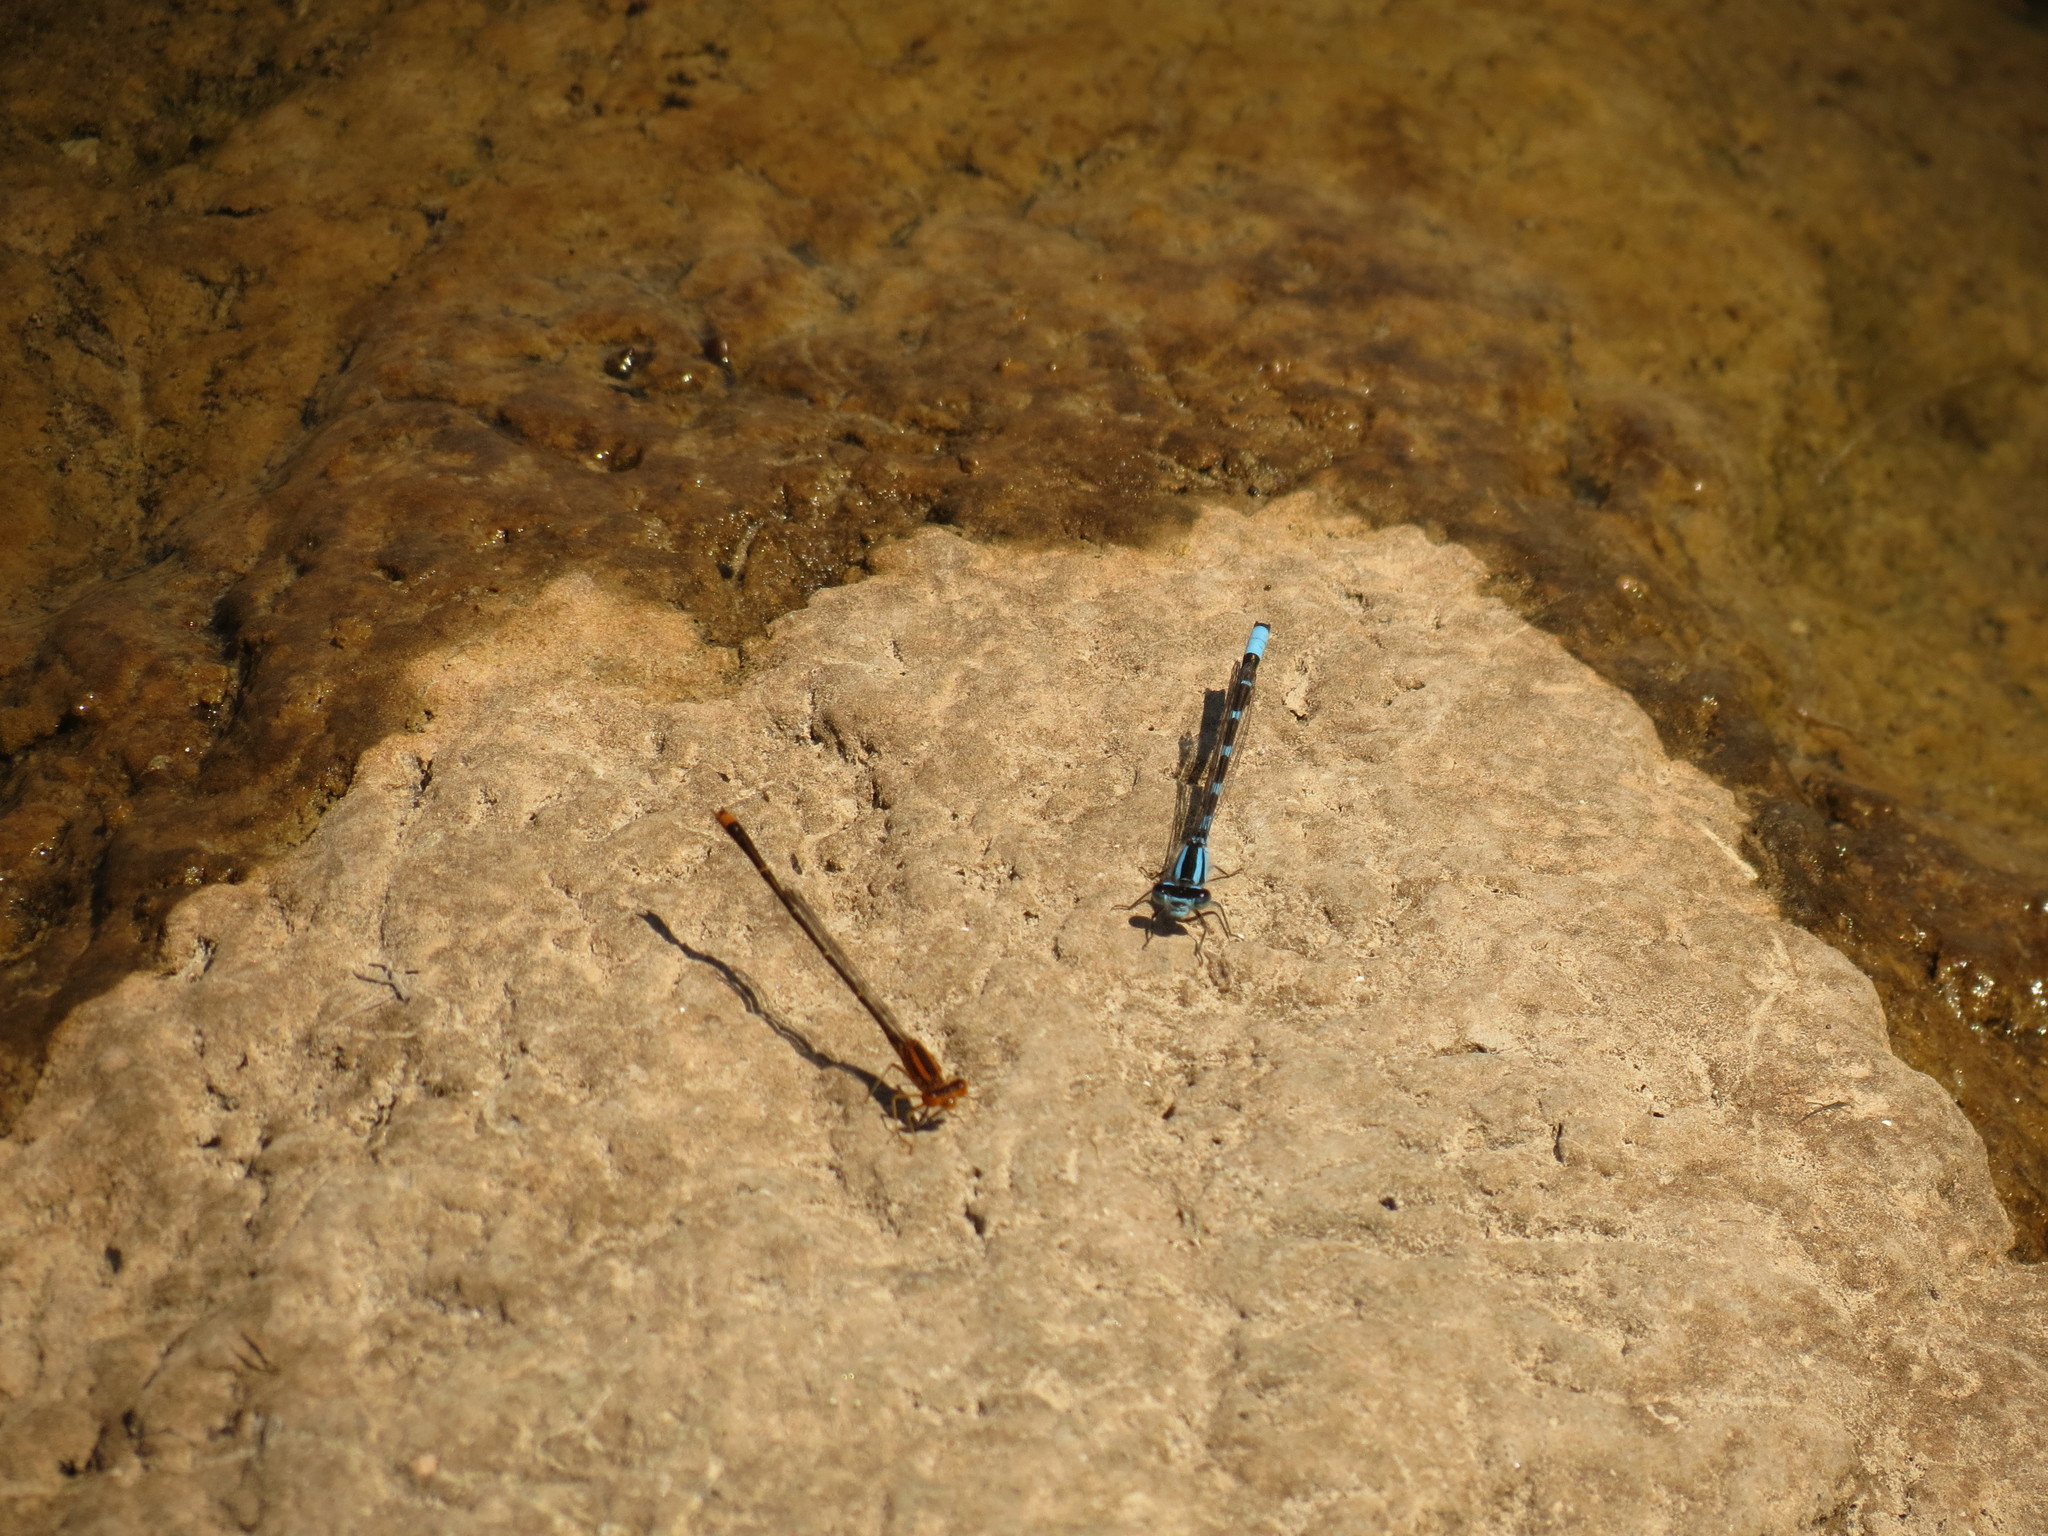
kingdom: Animalia
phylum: Arthropoda
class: Insecta
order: Odonata
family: Coenagrionidae
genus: Enallagma
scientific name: Enallagma carunculatum
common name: Tule bluet
